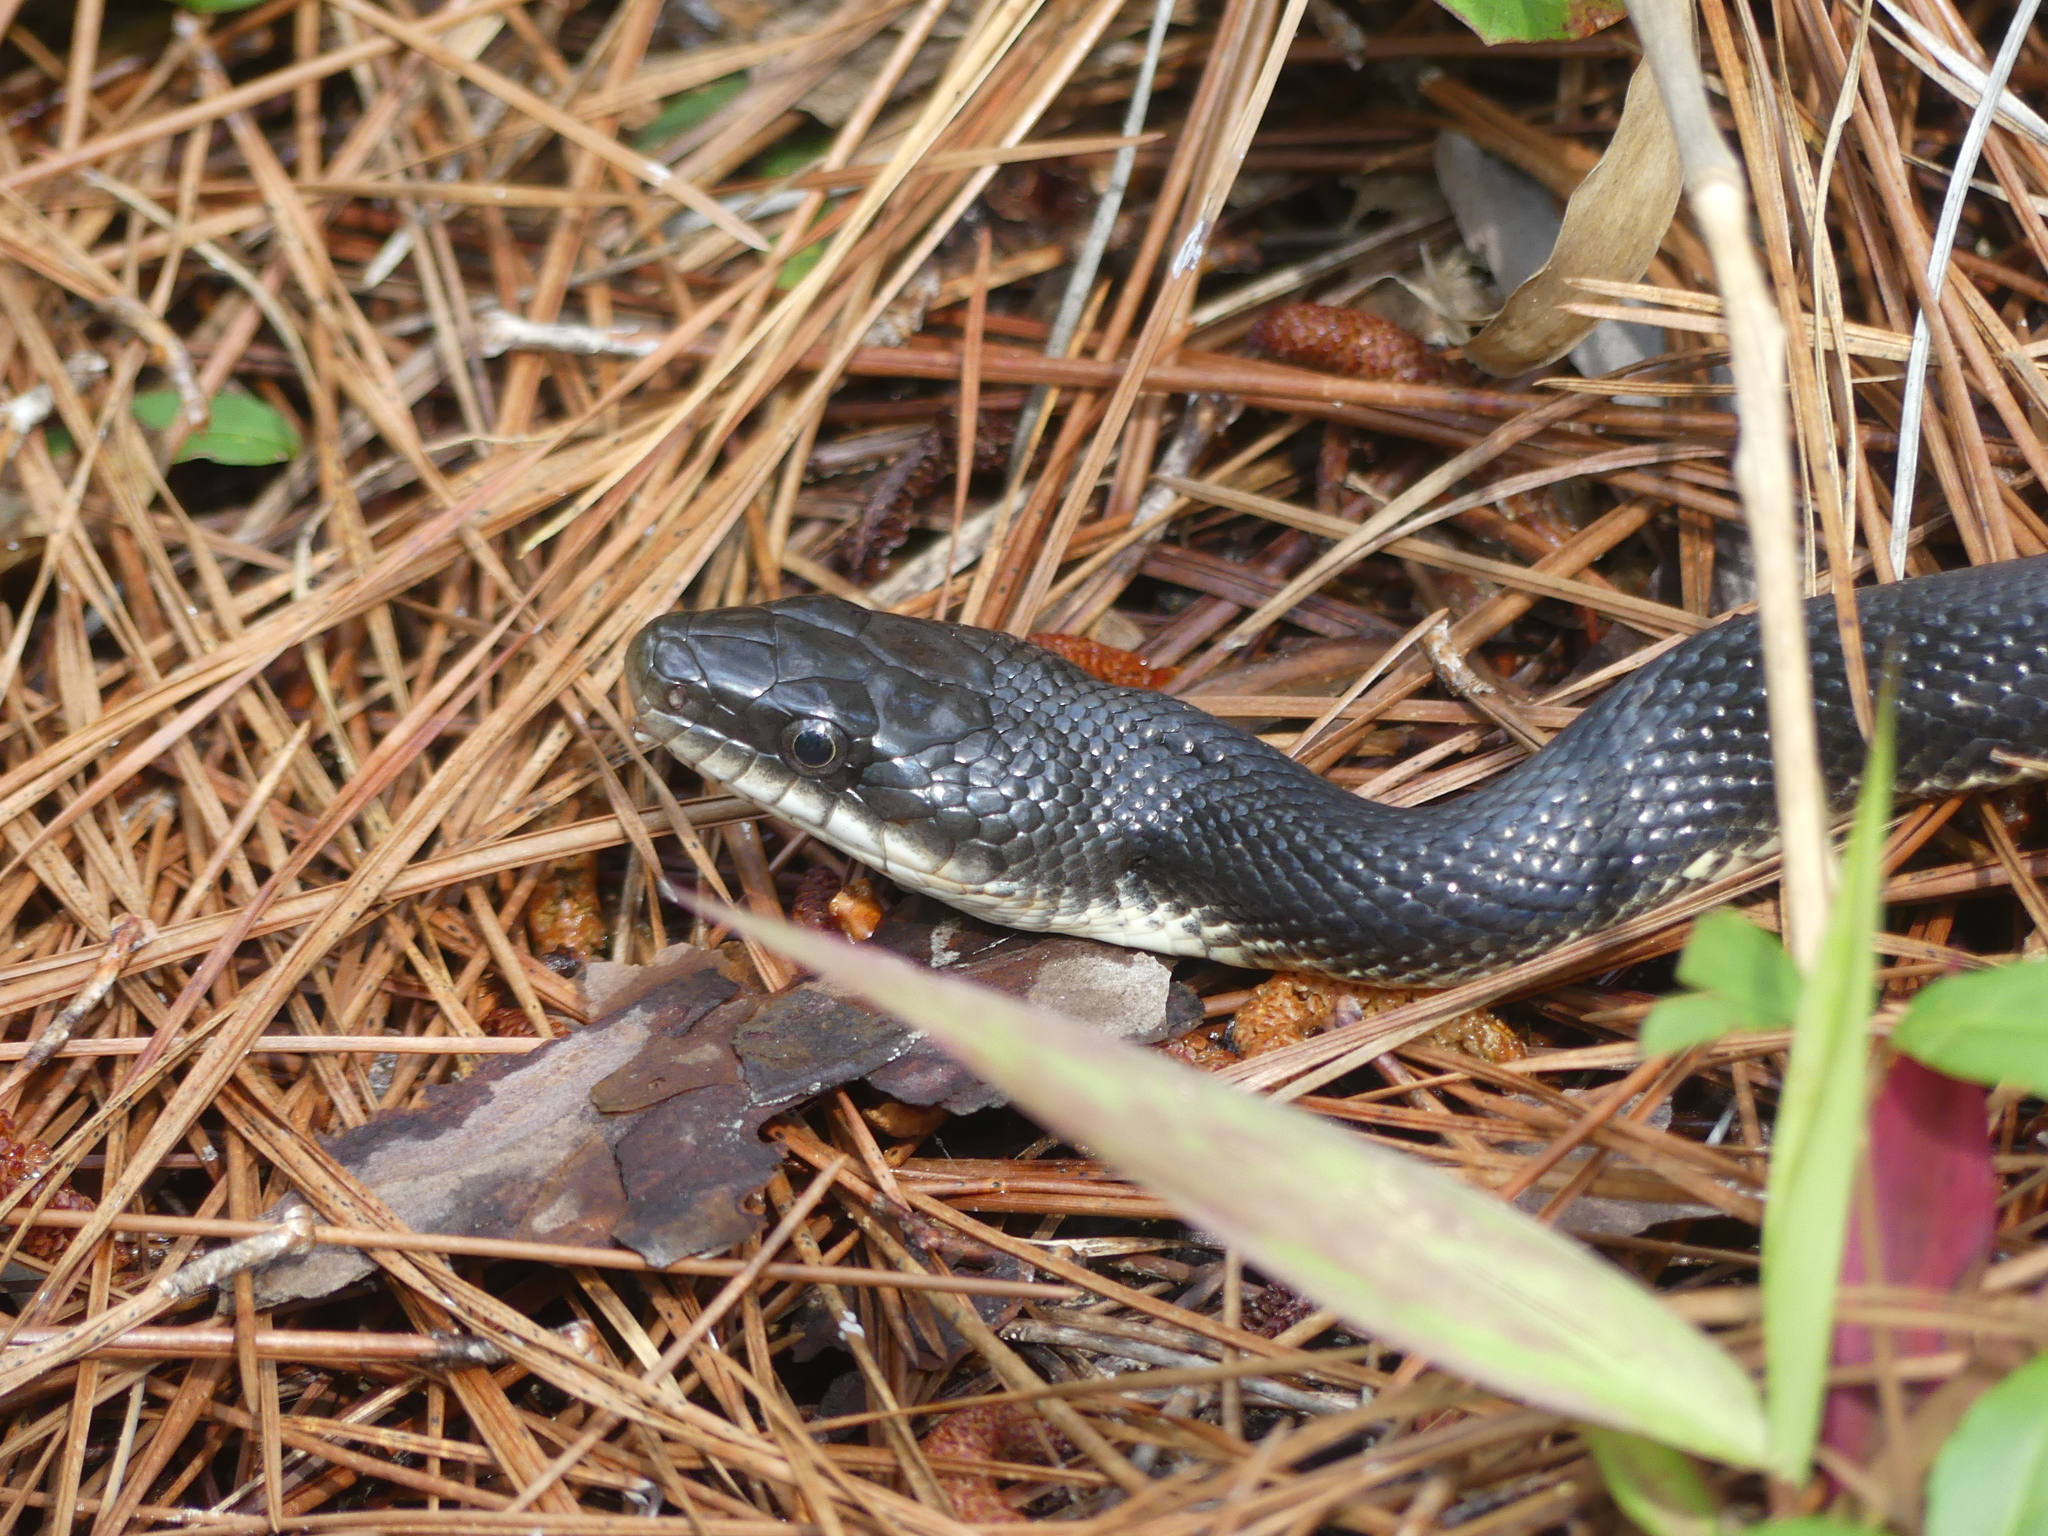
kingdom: Animalia
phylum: Chordata
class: Squamata
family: Colubridae
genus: Pantherophis
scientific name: Pantherophis obsoletus
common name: Black rat snake
